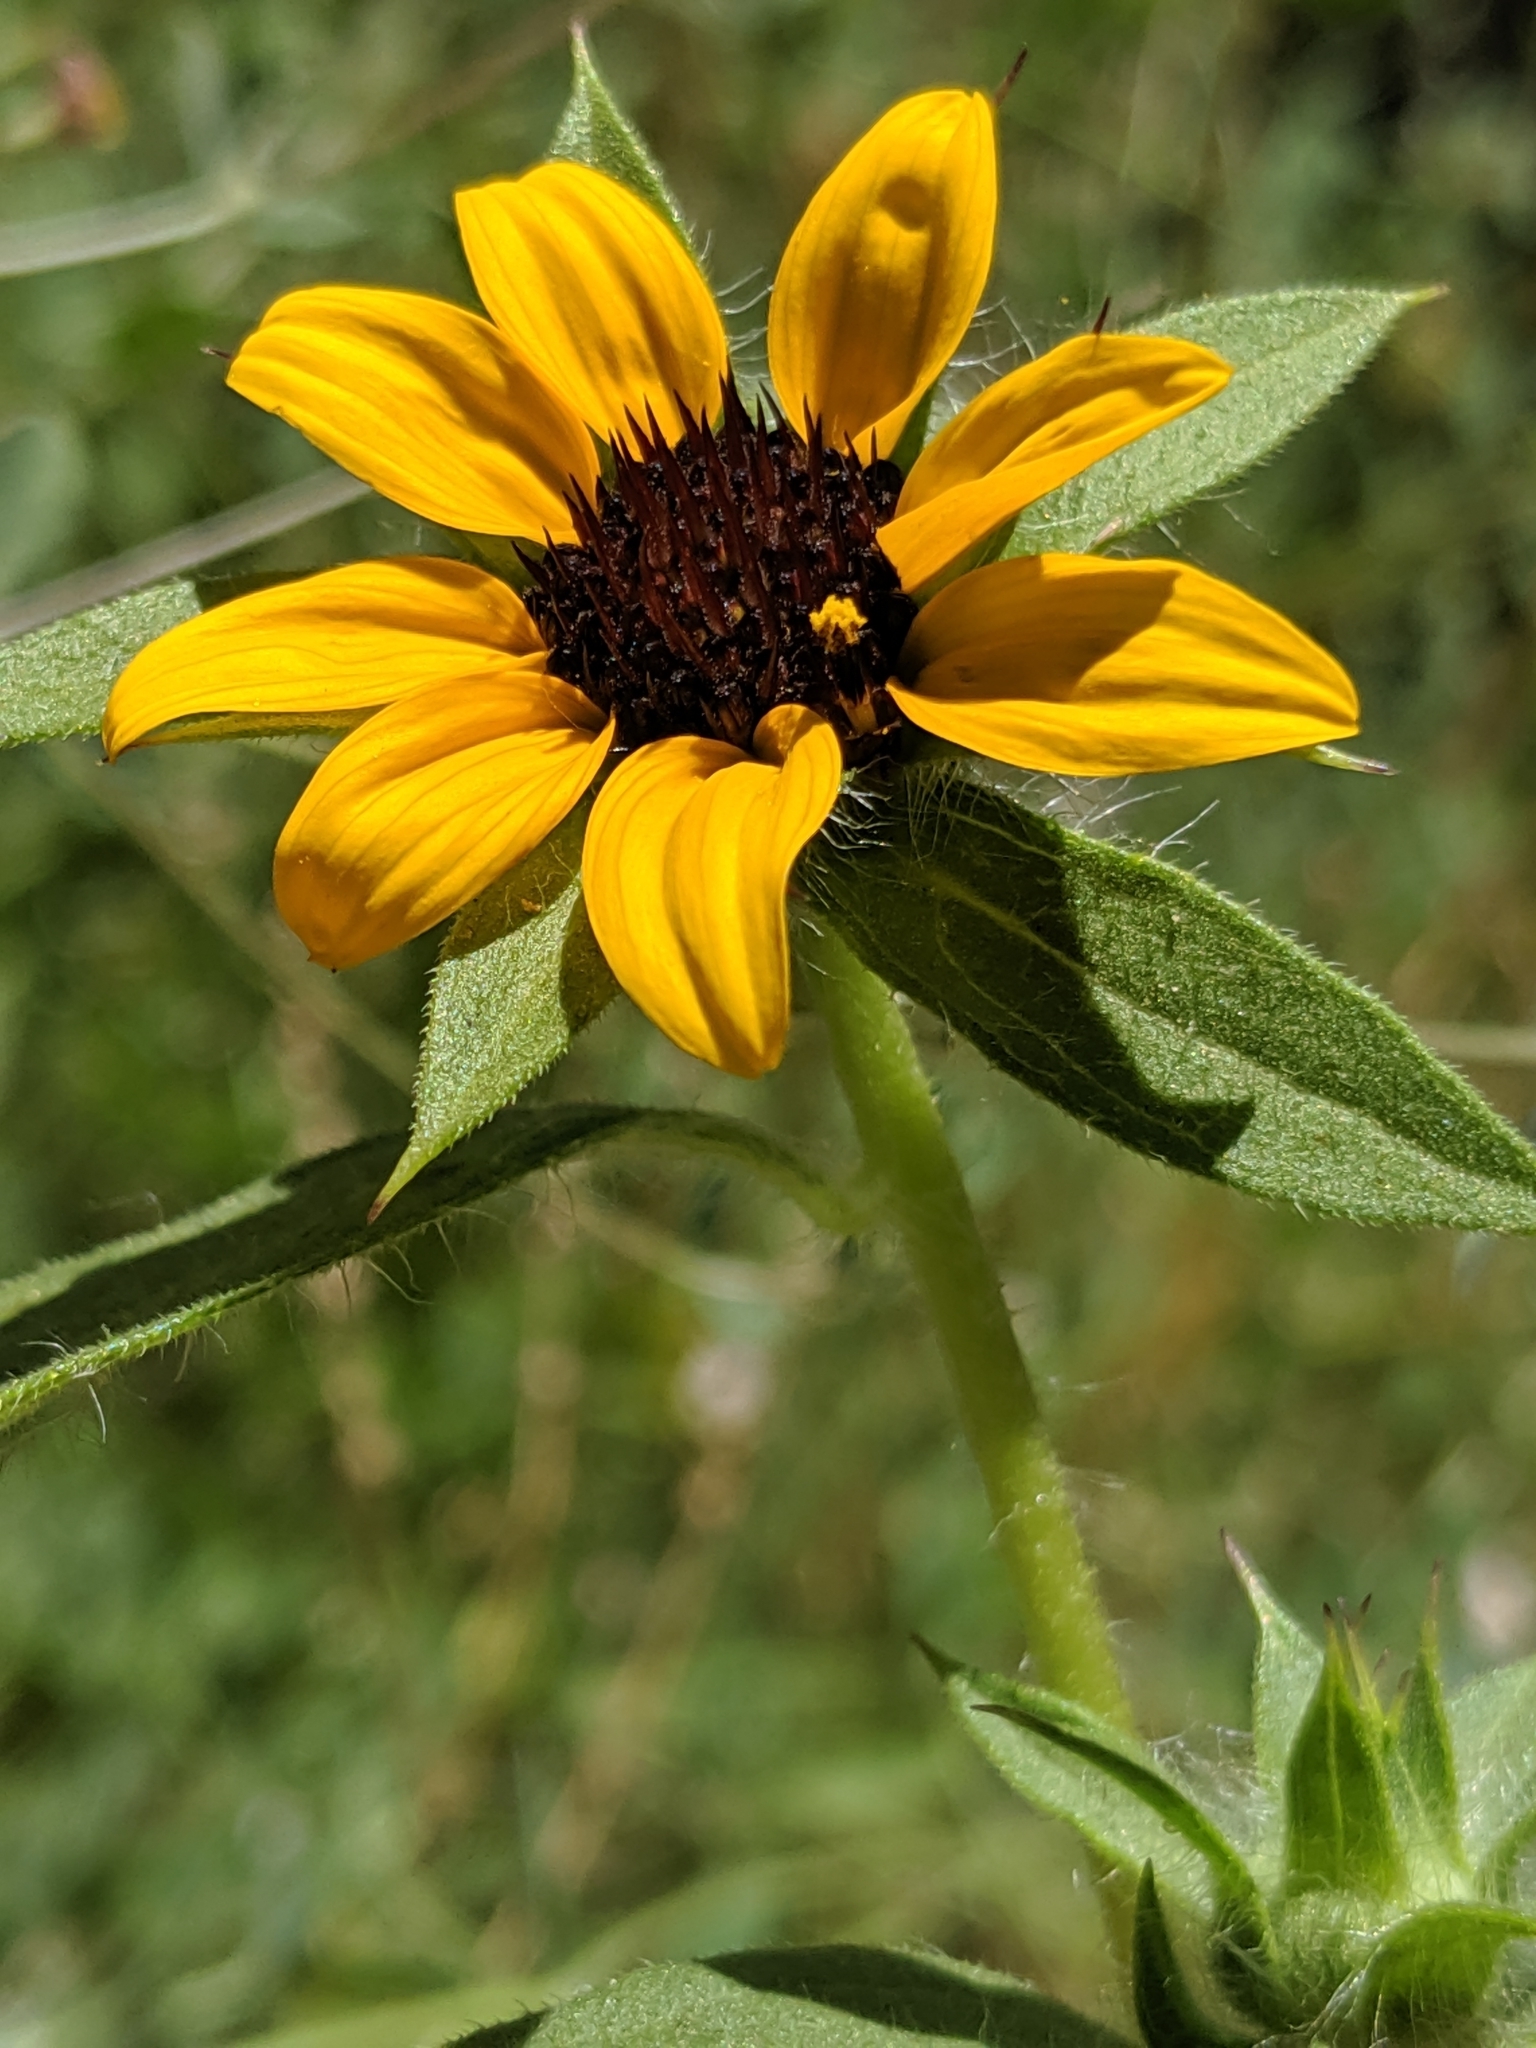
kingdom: Plantae
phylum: Tracheophyta
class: Magnoliopsida
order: Asterales
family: Asteraceae
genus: Helianthus
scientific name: Helianthus bolanderi
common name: Bolander's sunflower
